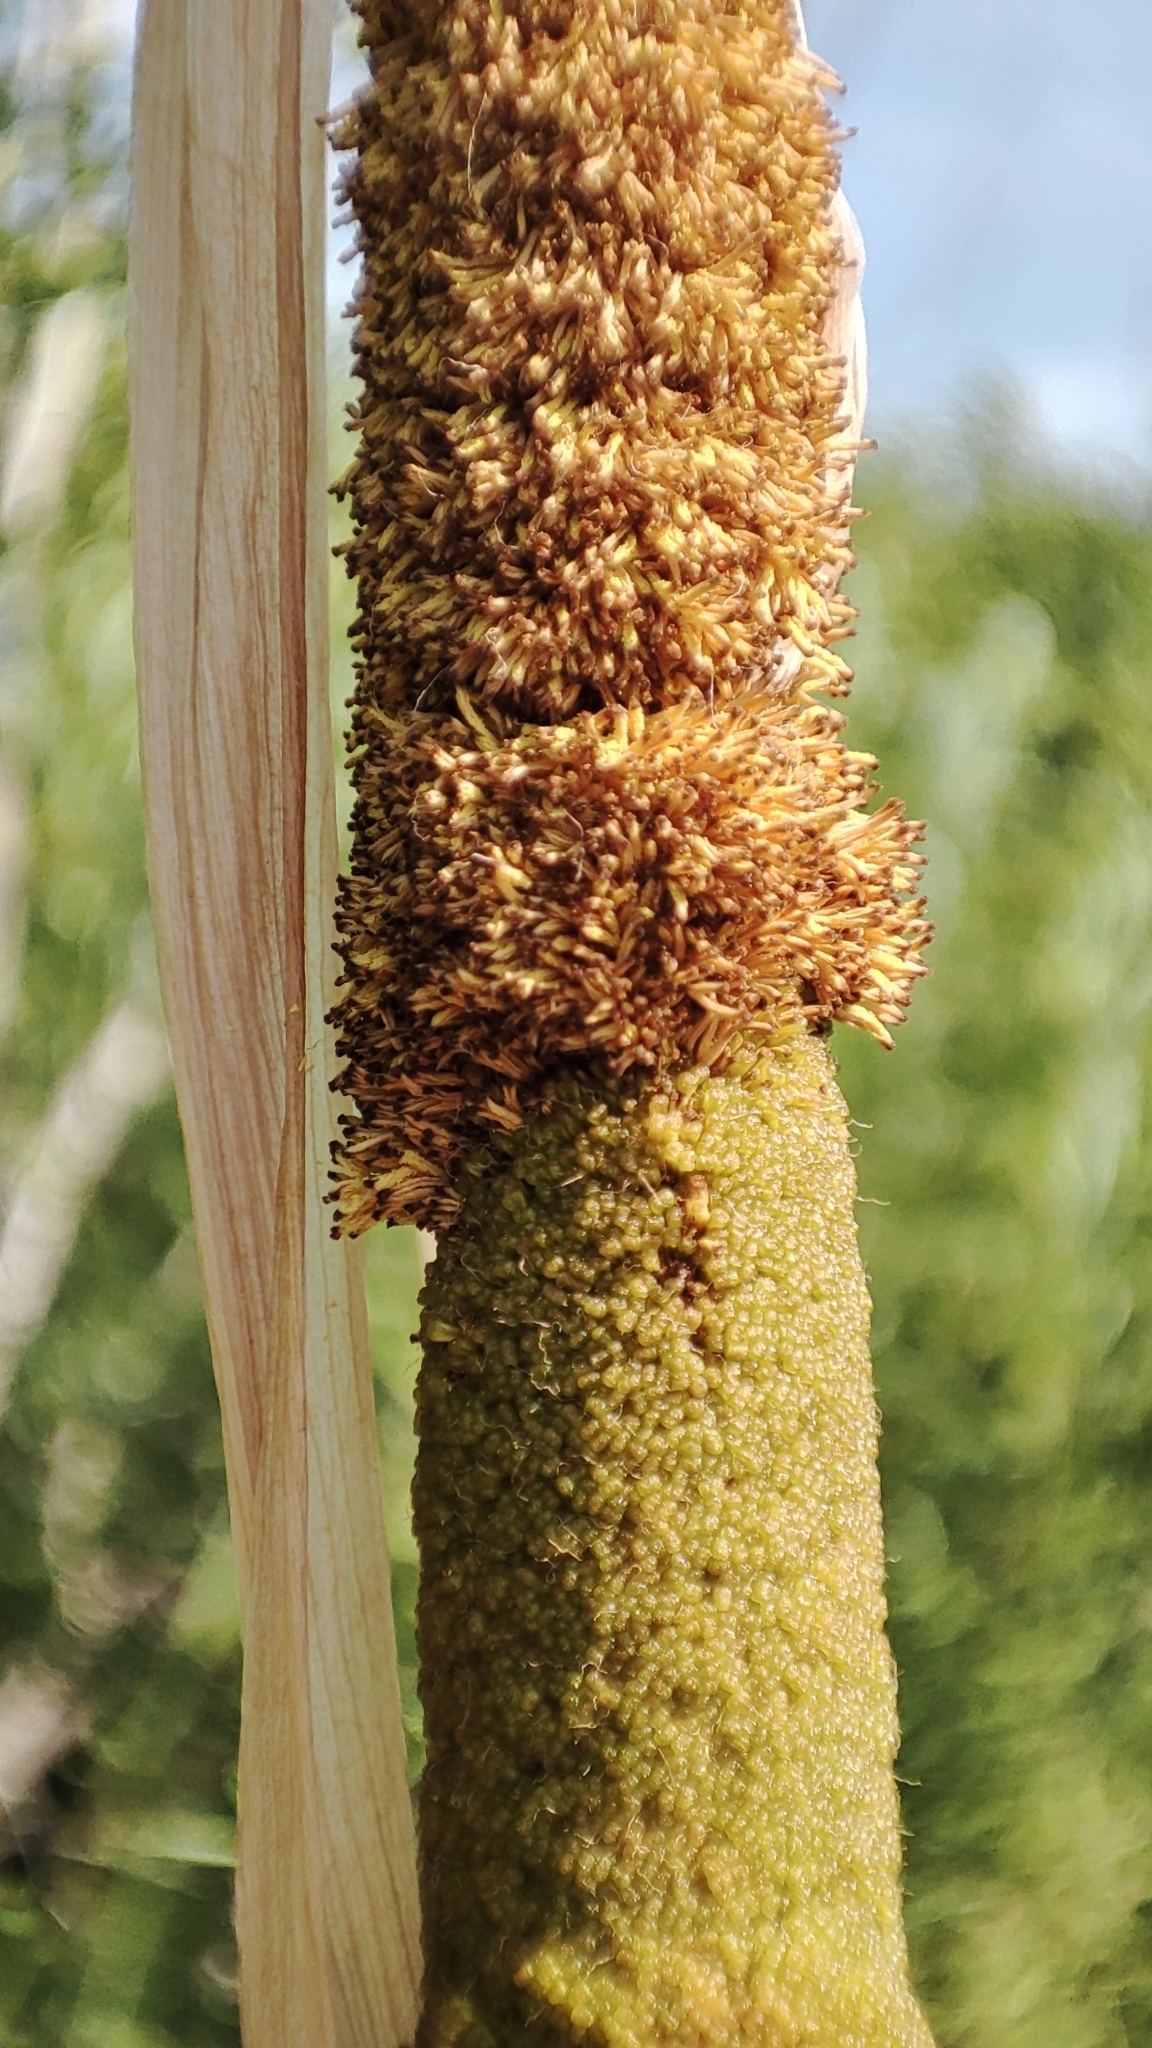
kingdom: Plantae
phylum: Tracheophyta
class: Liliopsida
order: Poales
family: Typhaceae
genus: Typha
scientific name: Typha latifolia
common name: Broadleaf cattail
